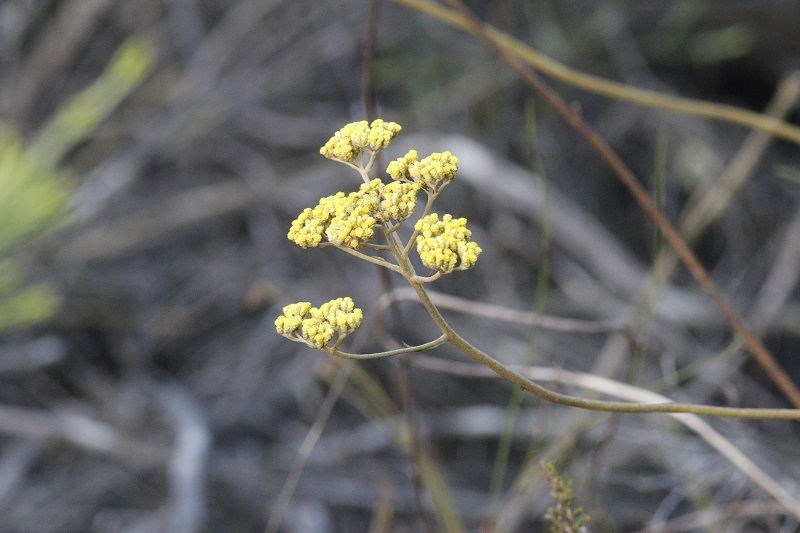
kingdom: Plantae
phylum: Tracheophyta
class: Magnoliopsida
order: Asterales
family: Asteraceae
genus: Helichrysum
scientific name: Helichrysum nudifolium
